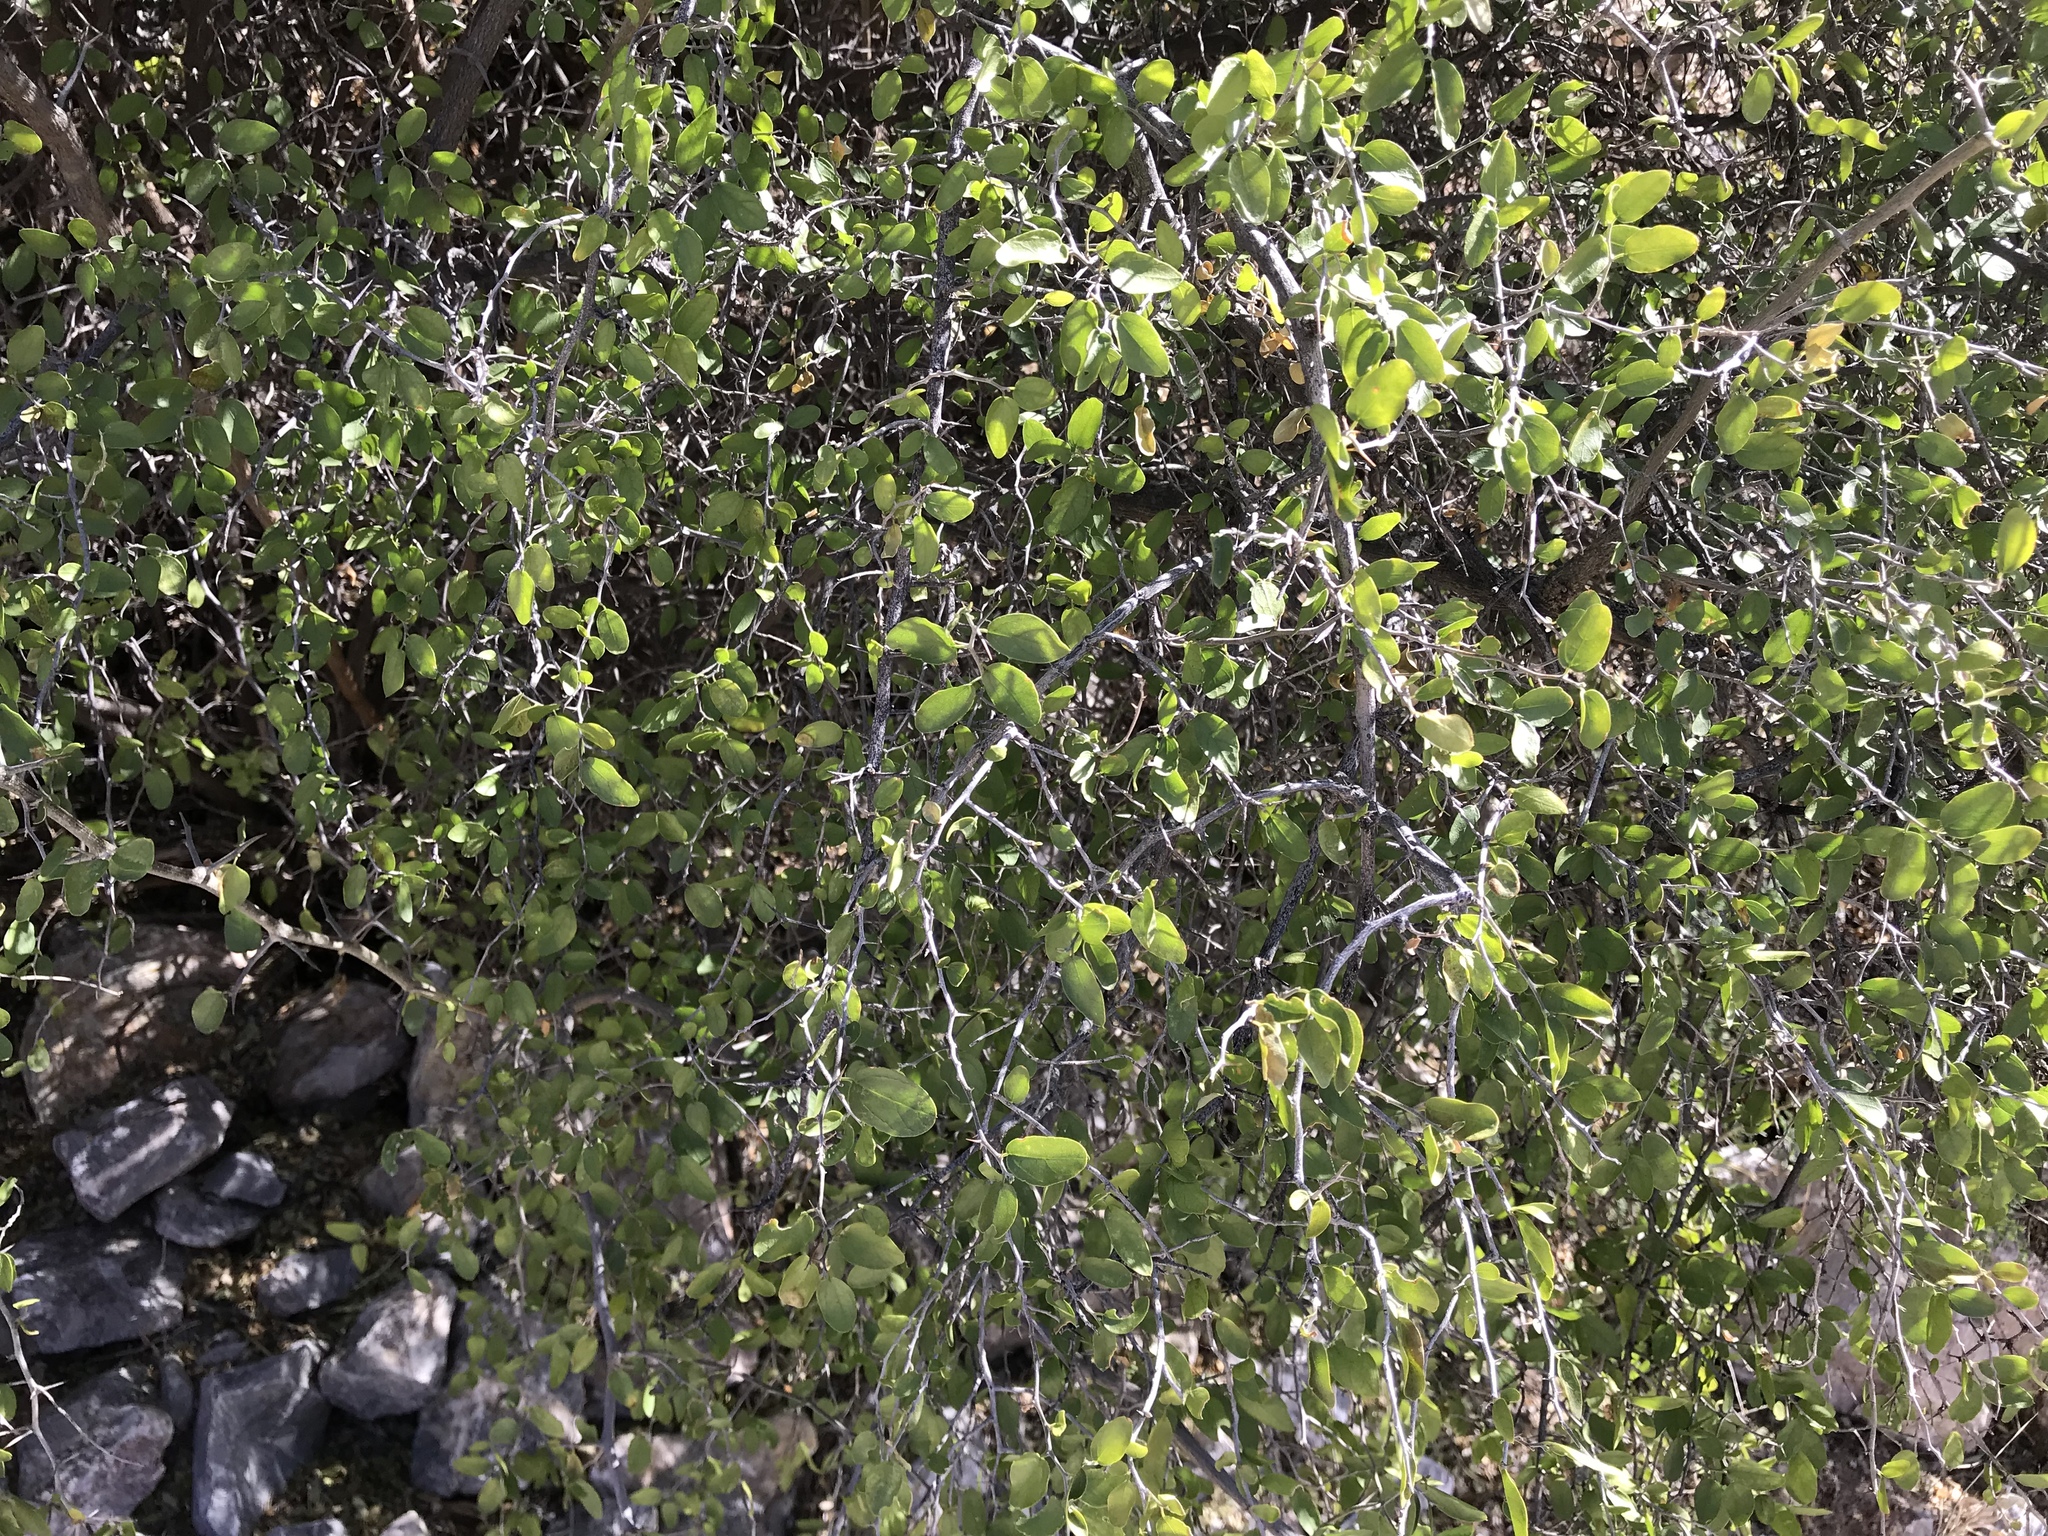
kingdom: Plantae
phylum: Tracheophyta
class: Magnoliopsida
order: Rosales
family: Cannabaceae
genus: Celtis
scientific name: Celtis pallida
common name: Desert hackberry
